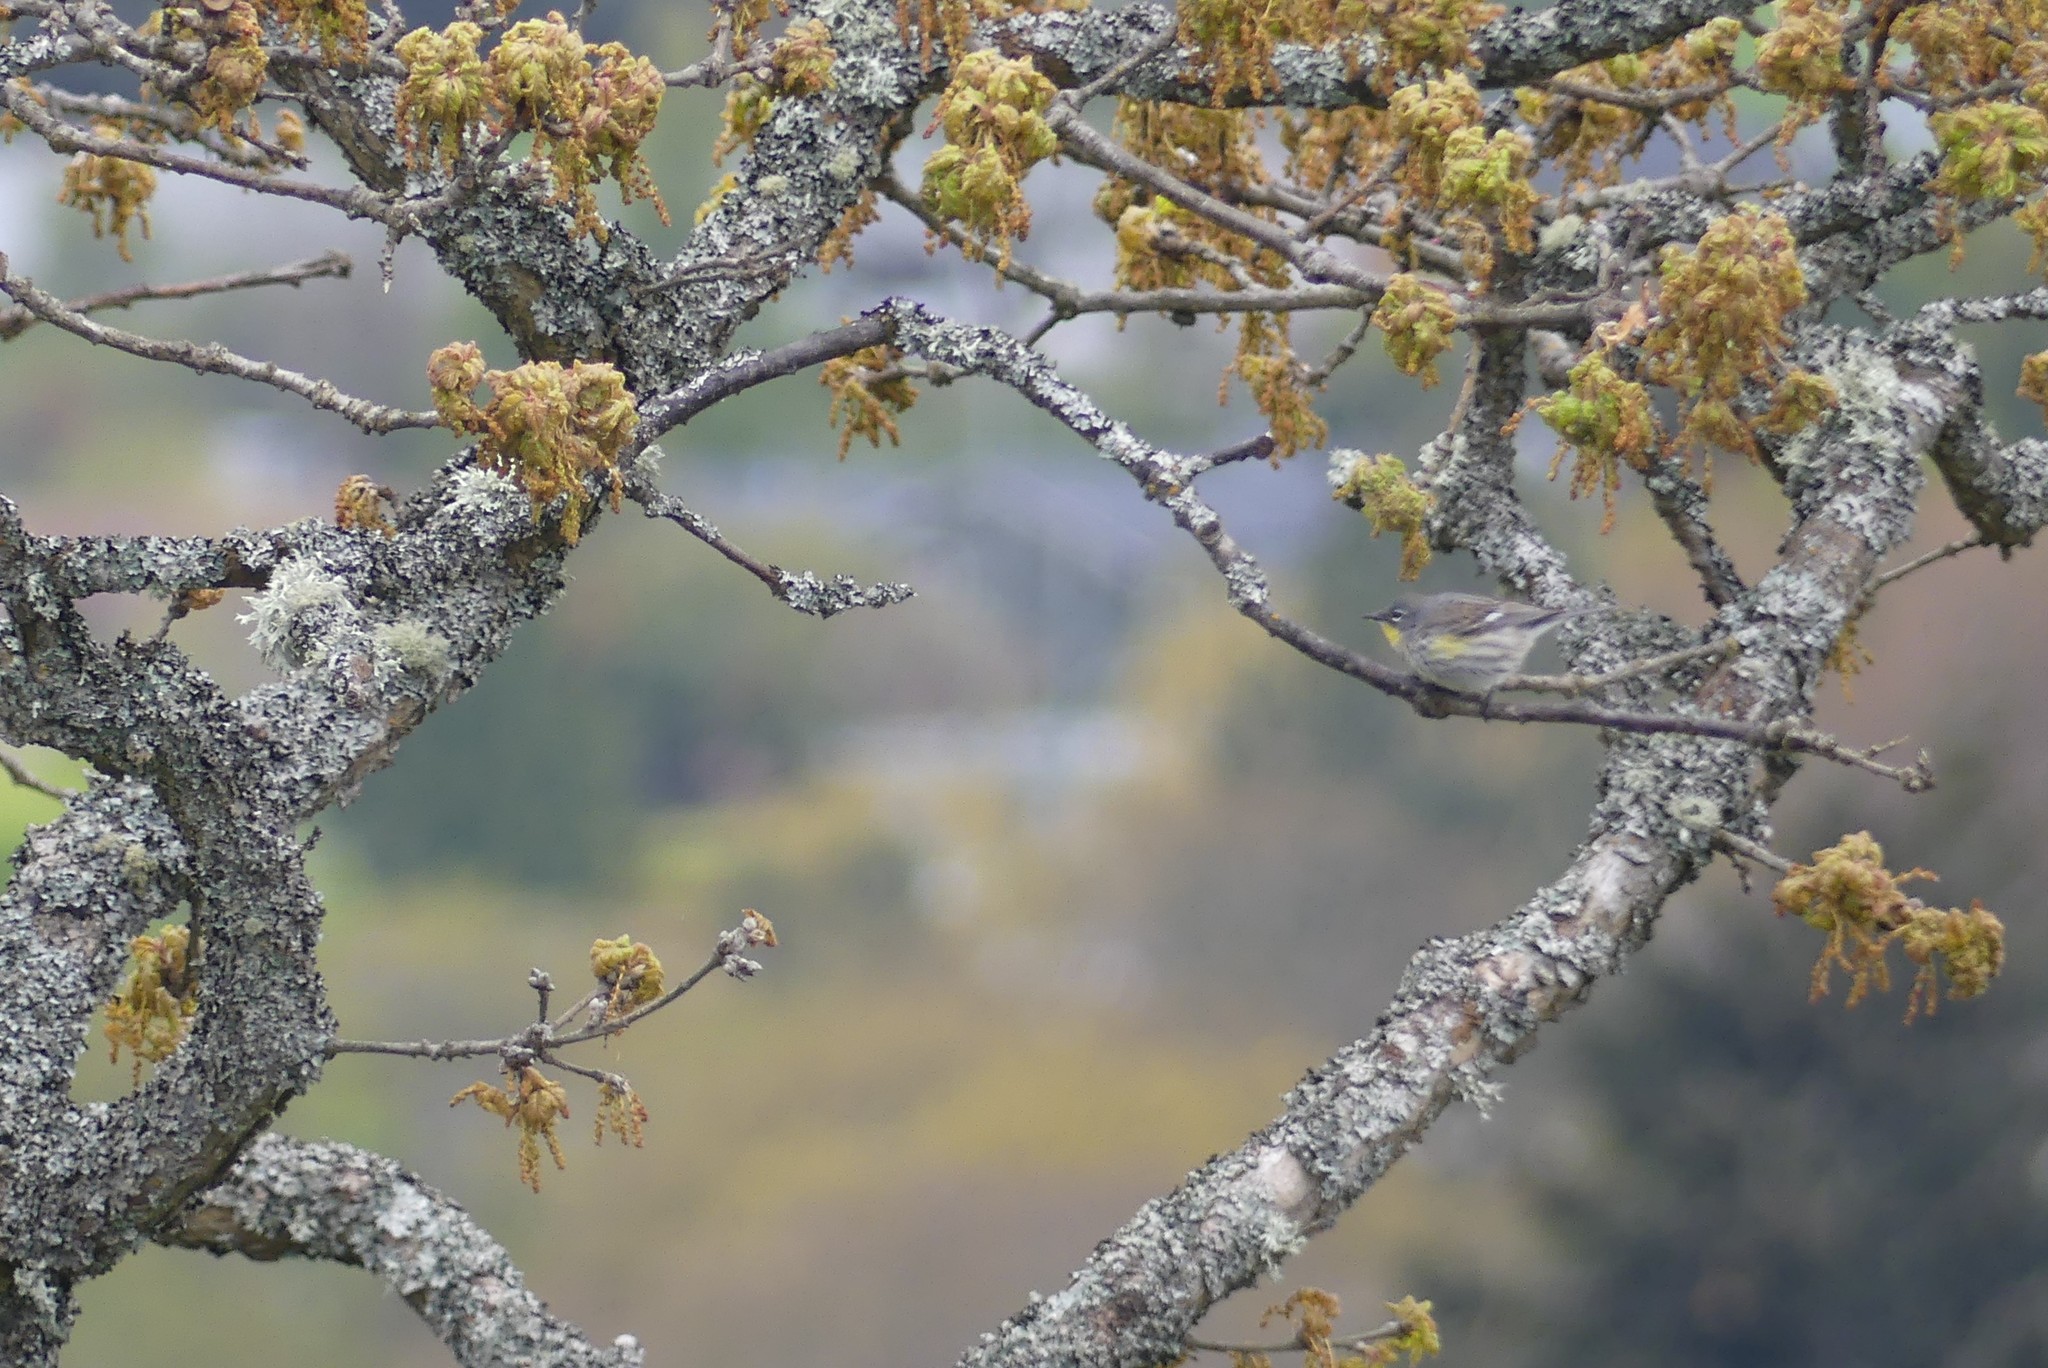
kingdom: Animalia
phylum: Chordata
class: Aves
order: Passeriformes
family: Parulidae
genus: Setophaga
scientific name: Setophaga coronata
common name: Myrtle warbler
